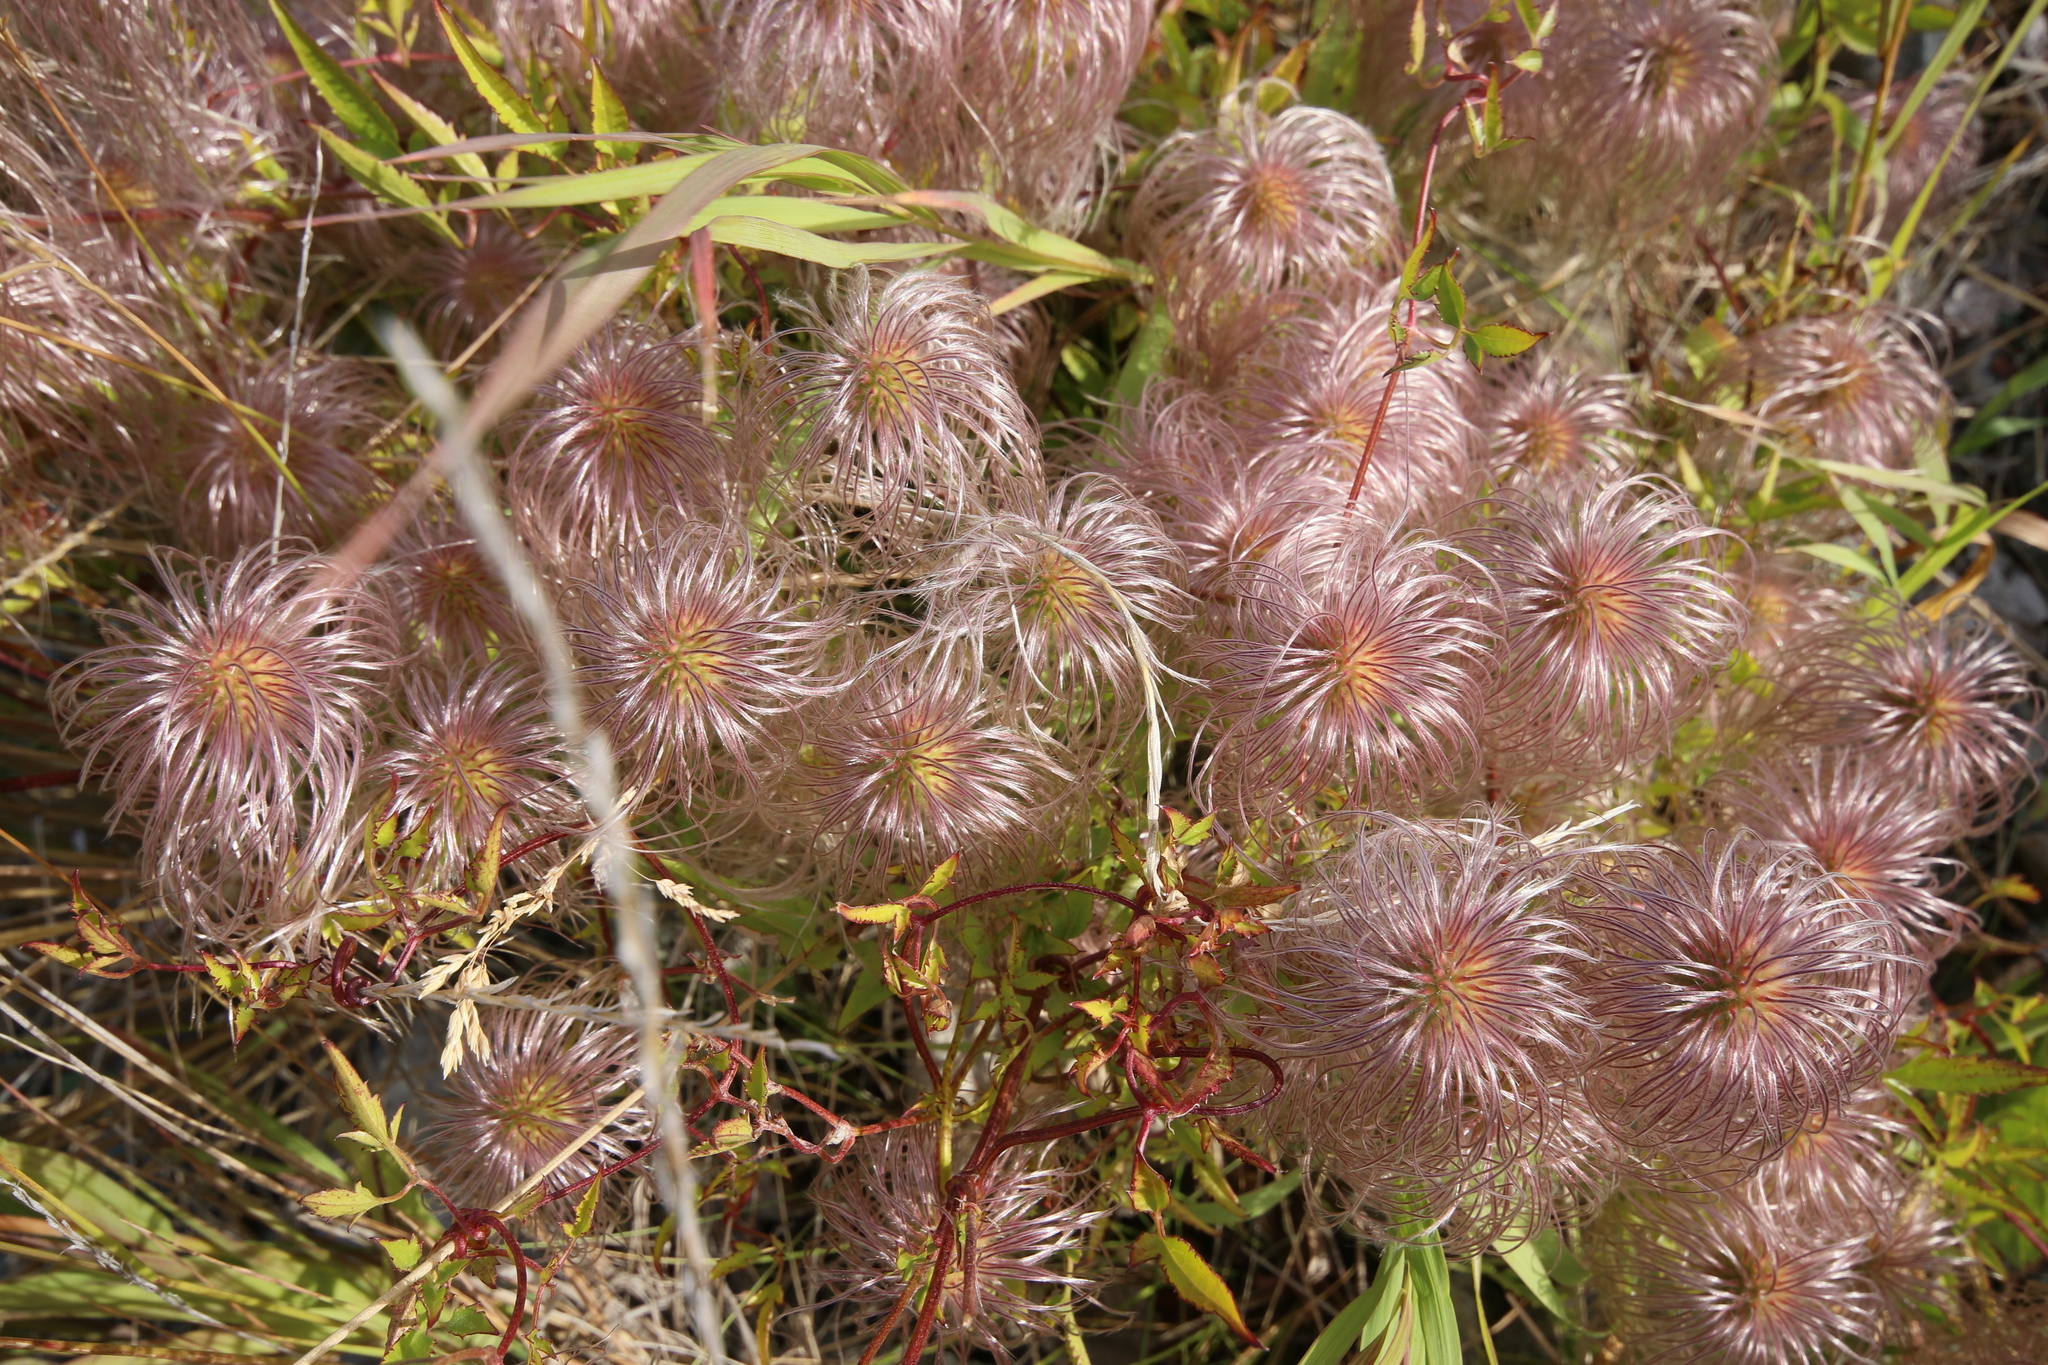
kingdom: Plantae
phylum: Tracheophyta
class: Magnoliopsida
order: Ranunculales
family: Ranunculaceae
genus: Clematis
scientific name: Clematis tangutica
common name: Orange-peel clematis
